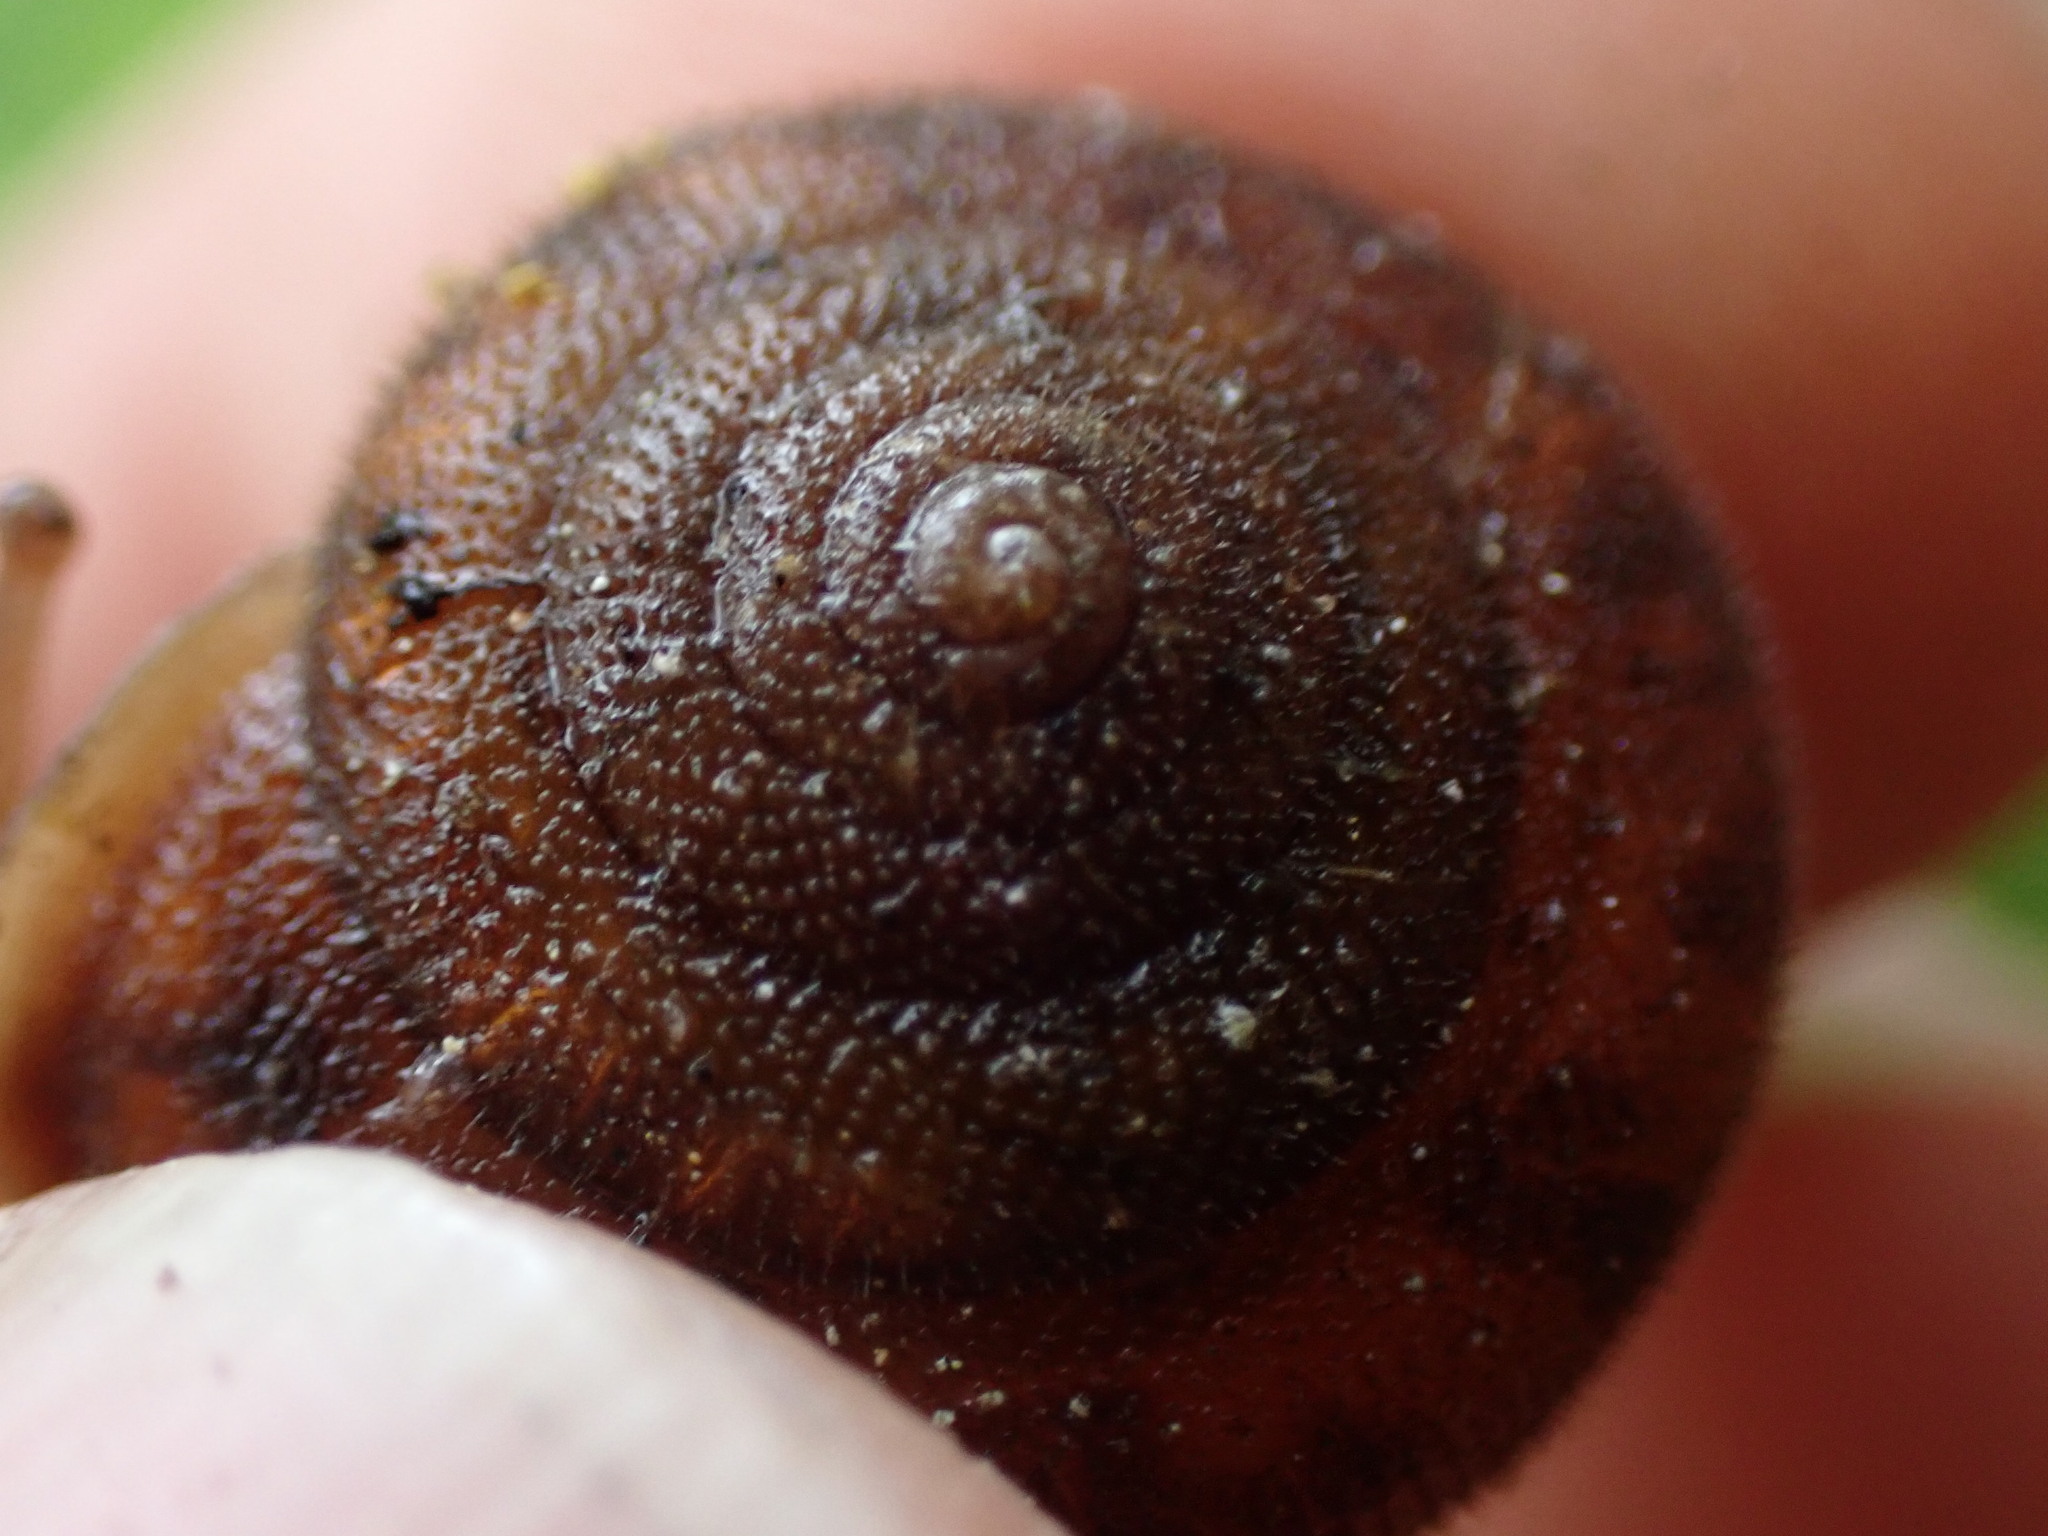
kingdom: Animalia
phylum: Mollusca
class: Gastropoda
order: Stylommatophora
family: Polygyridae
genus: Vespericola
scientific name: Vespericola columbianus
